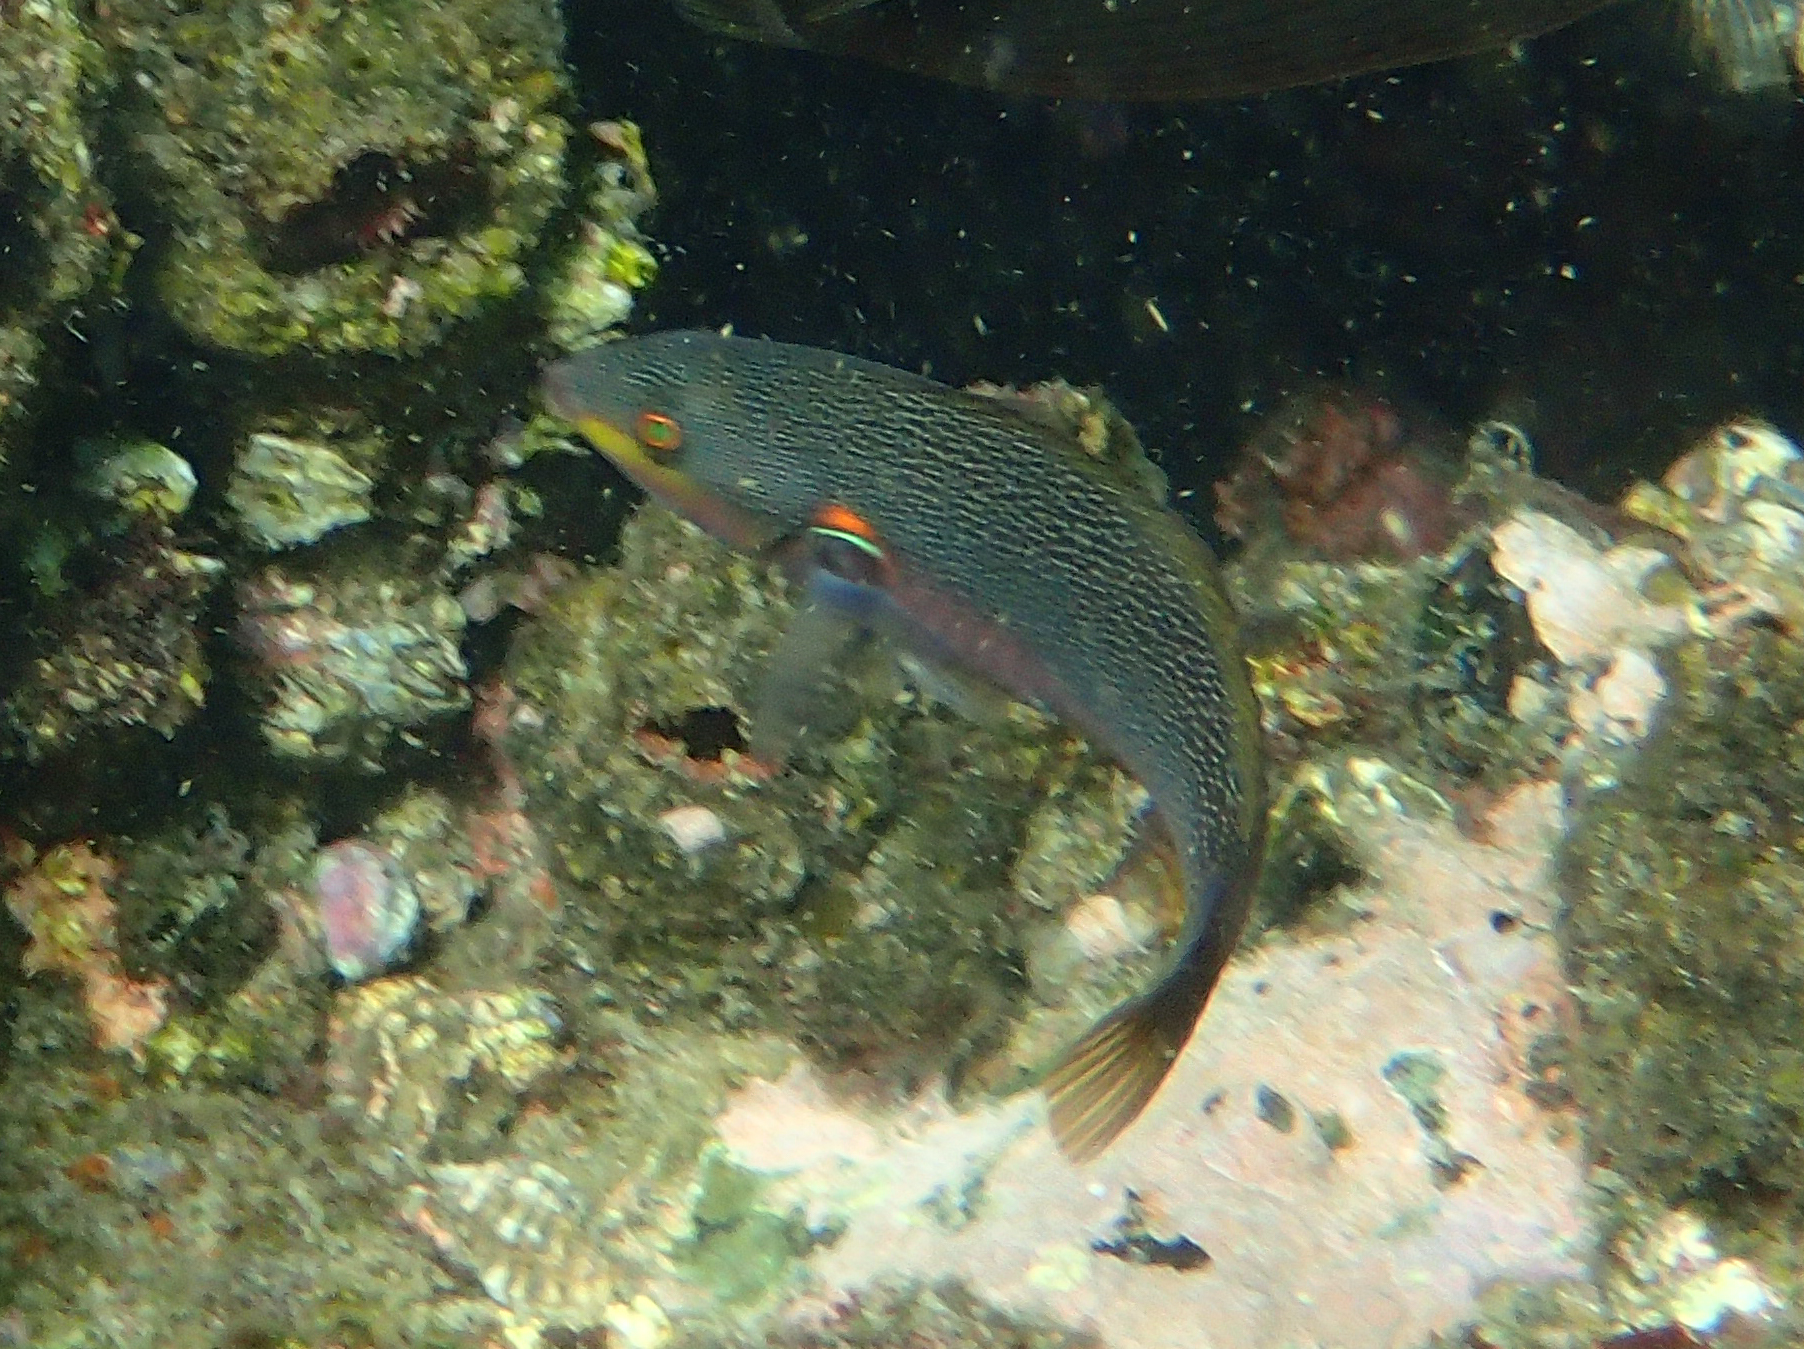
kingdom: Animalia
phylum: Chordata
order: Perciformes
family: Labridae
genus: Stethojulis
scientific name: Stethojulis bandanensis
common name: Red shoulder wrasse
